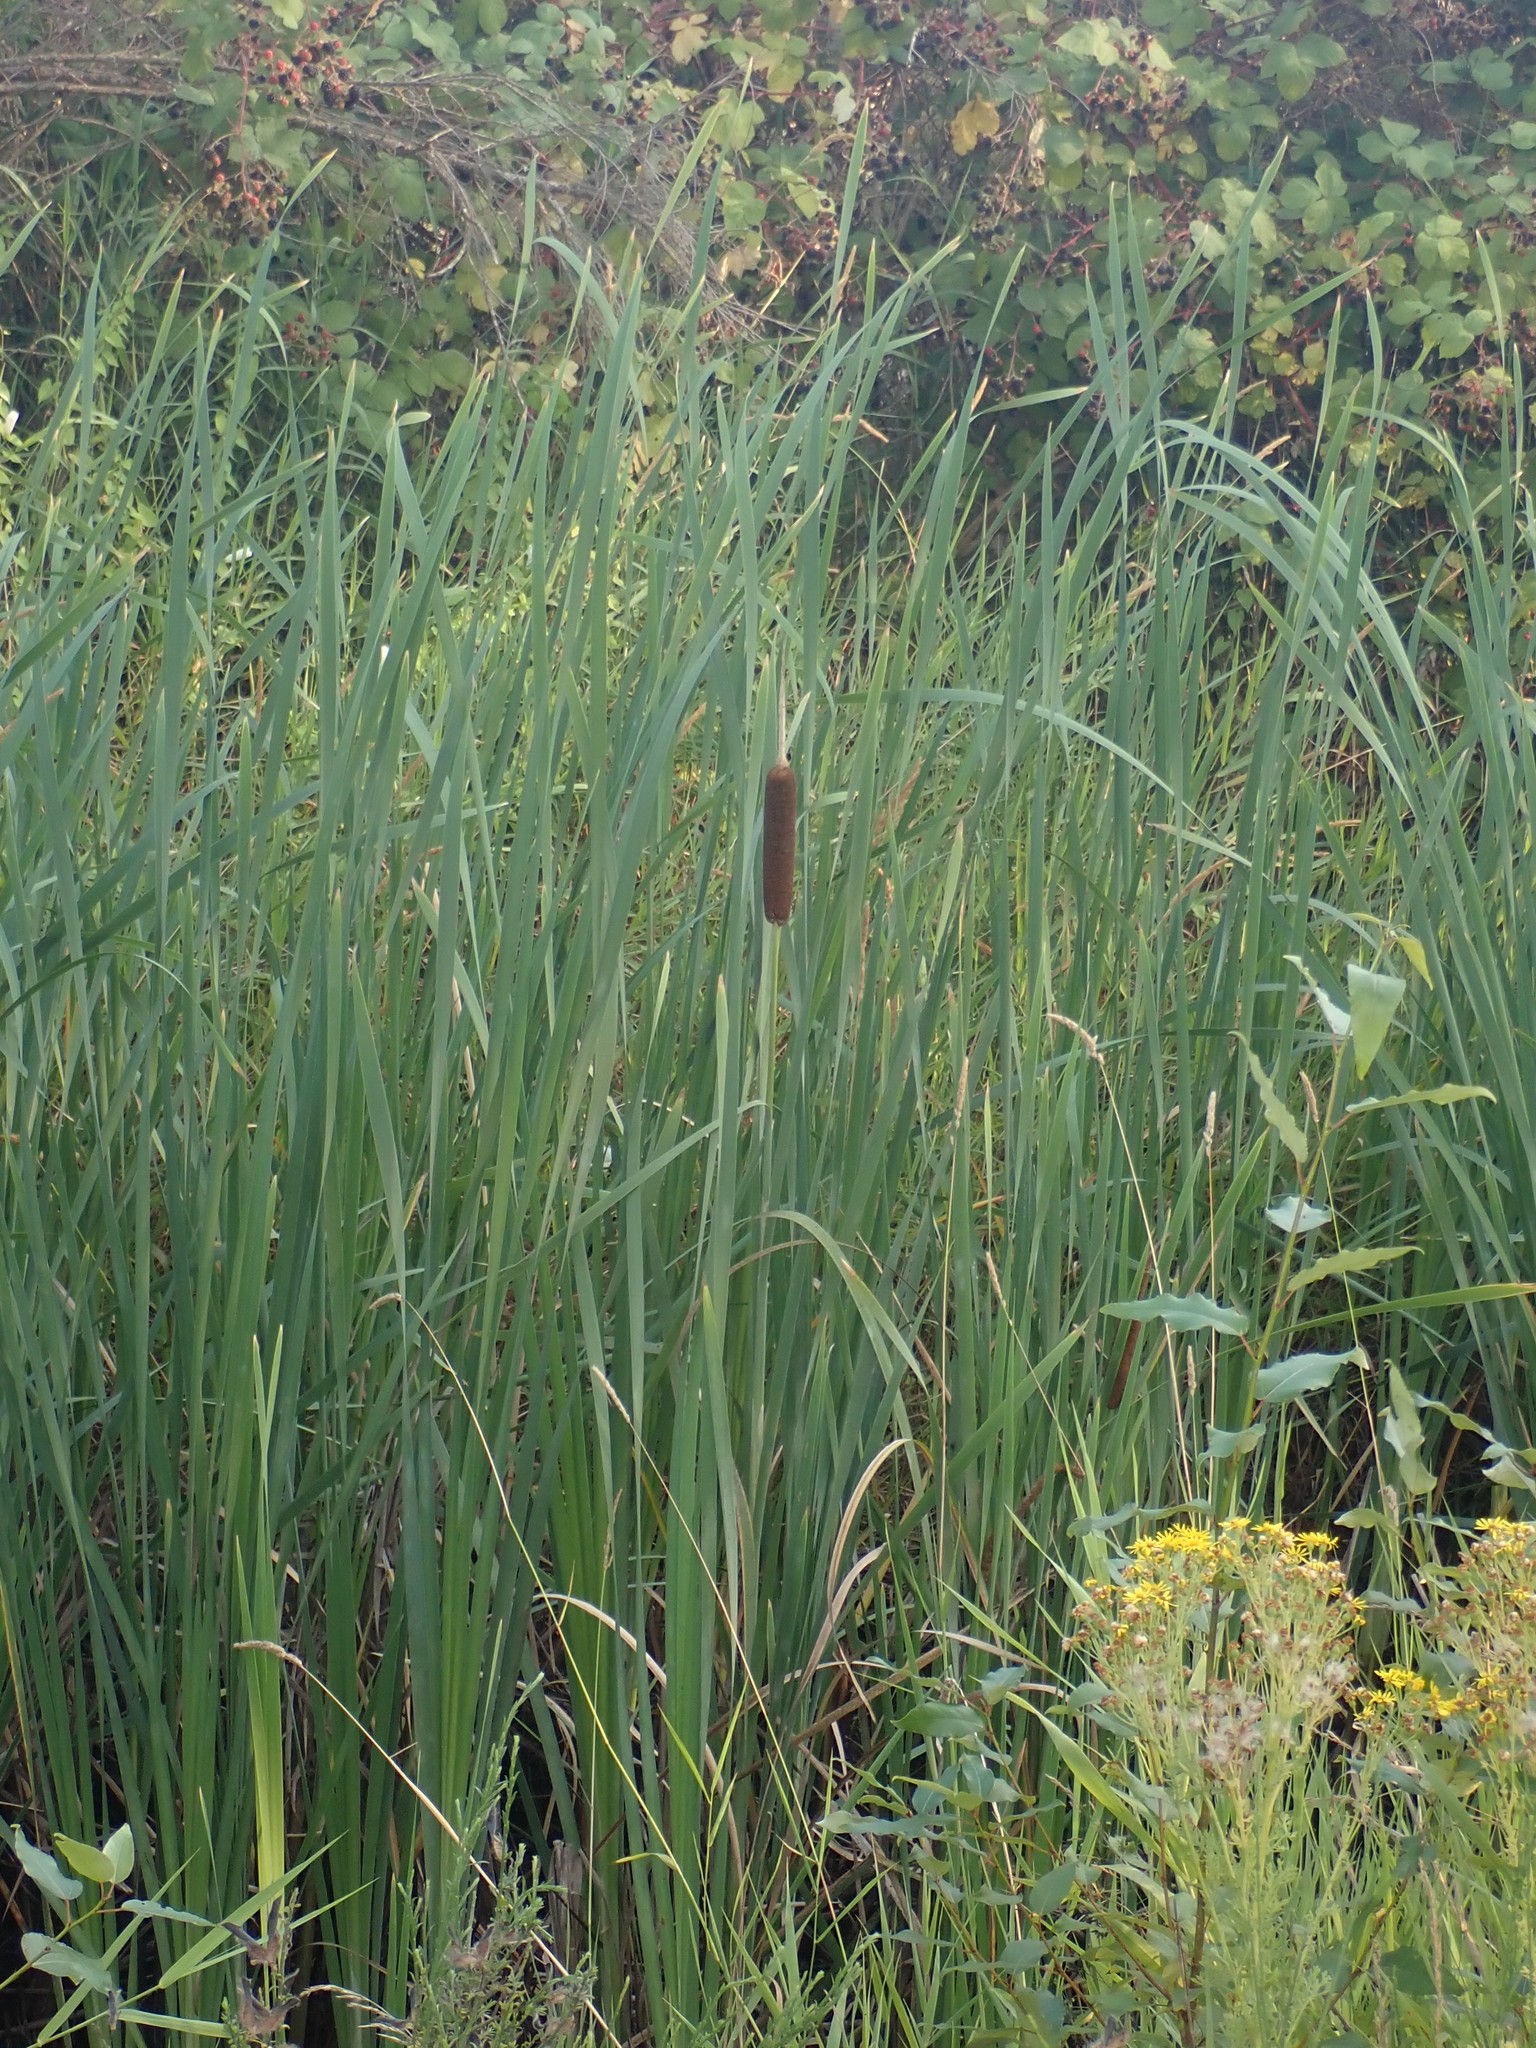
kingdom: Plantae
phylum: Tracheophyta
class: Liliopsida
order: Poales
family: Typhaceae
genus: Typha
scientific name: Typha latifolia
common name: Broadleaf cattail
